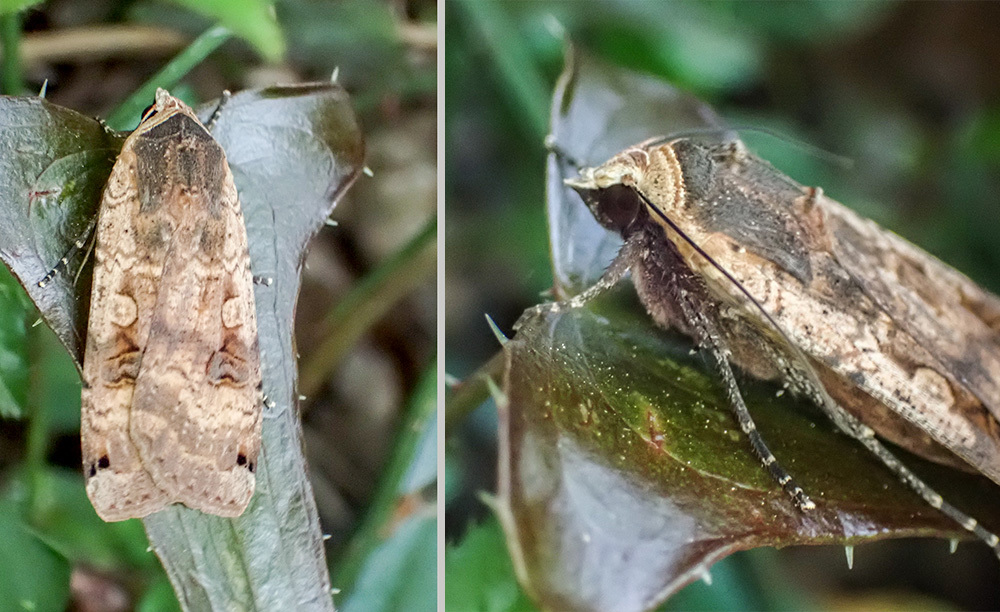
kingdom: Animalia
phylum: Arthropoda
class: Insecta
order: Lepidoptera
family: Noctuidae
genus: Noctua
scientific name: Noctua pronuba
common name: Large yellow underwing
